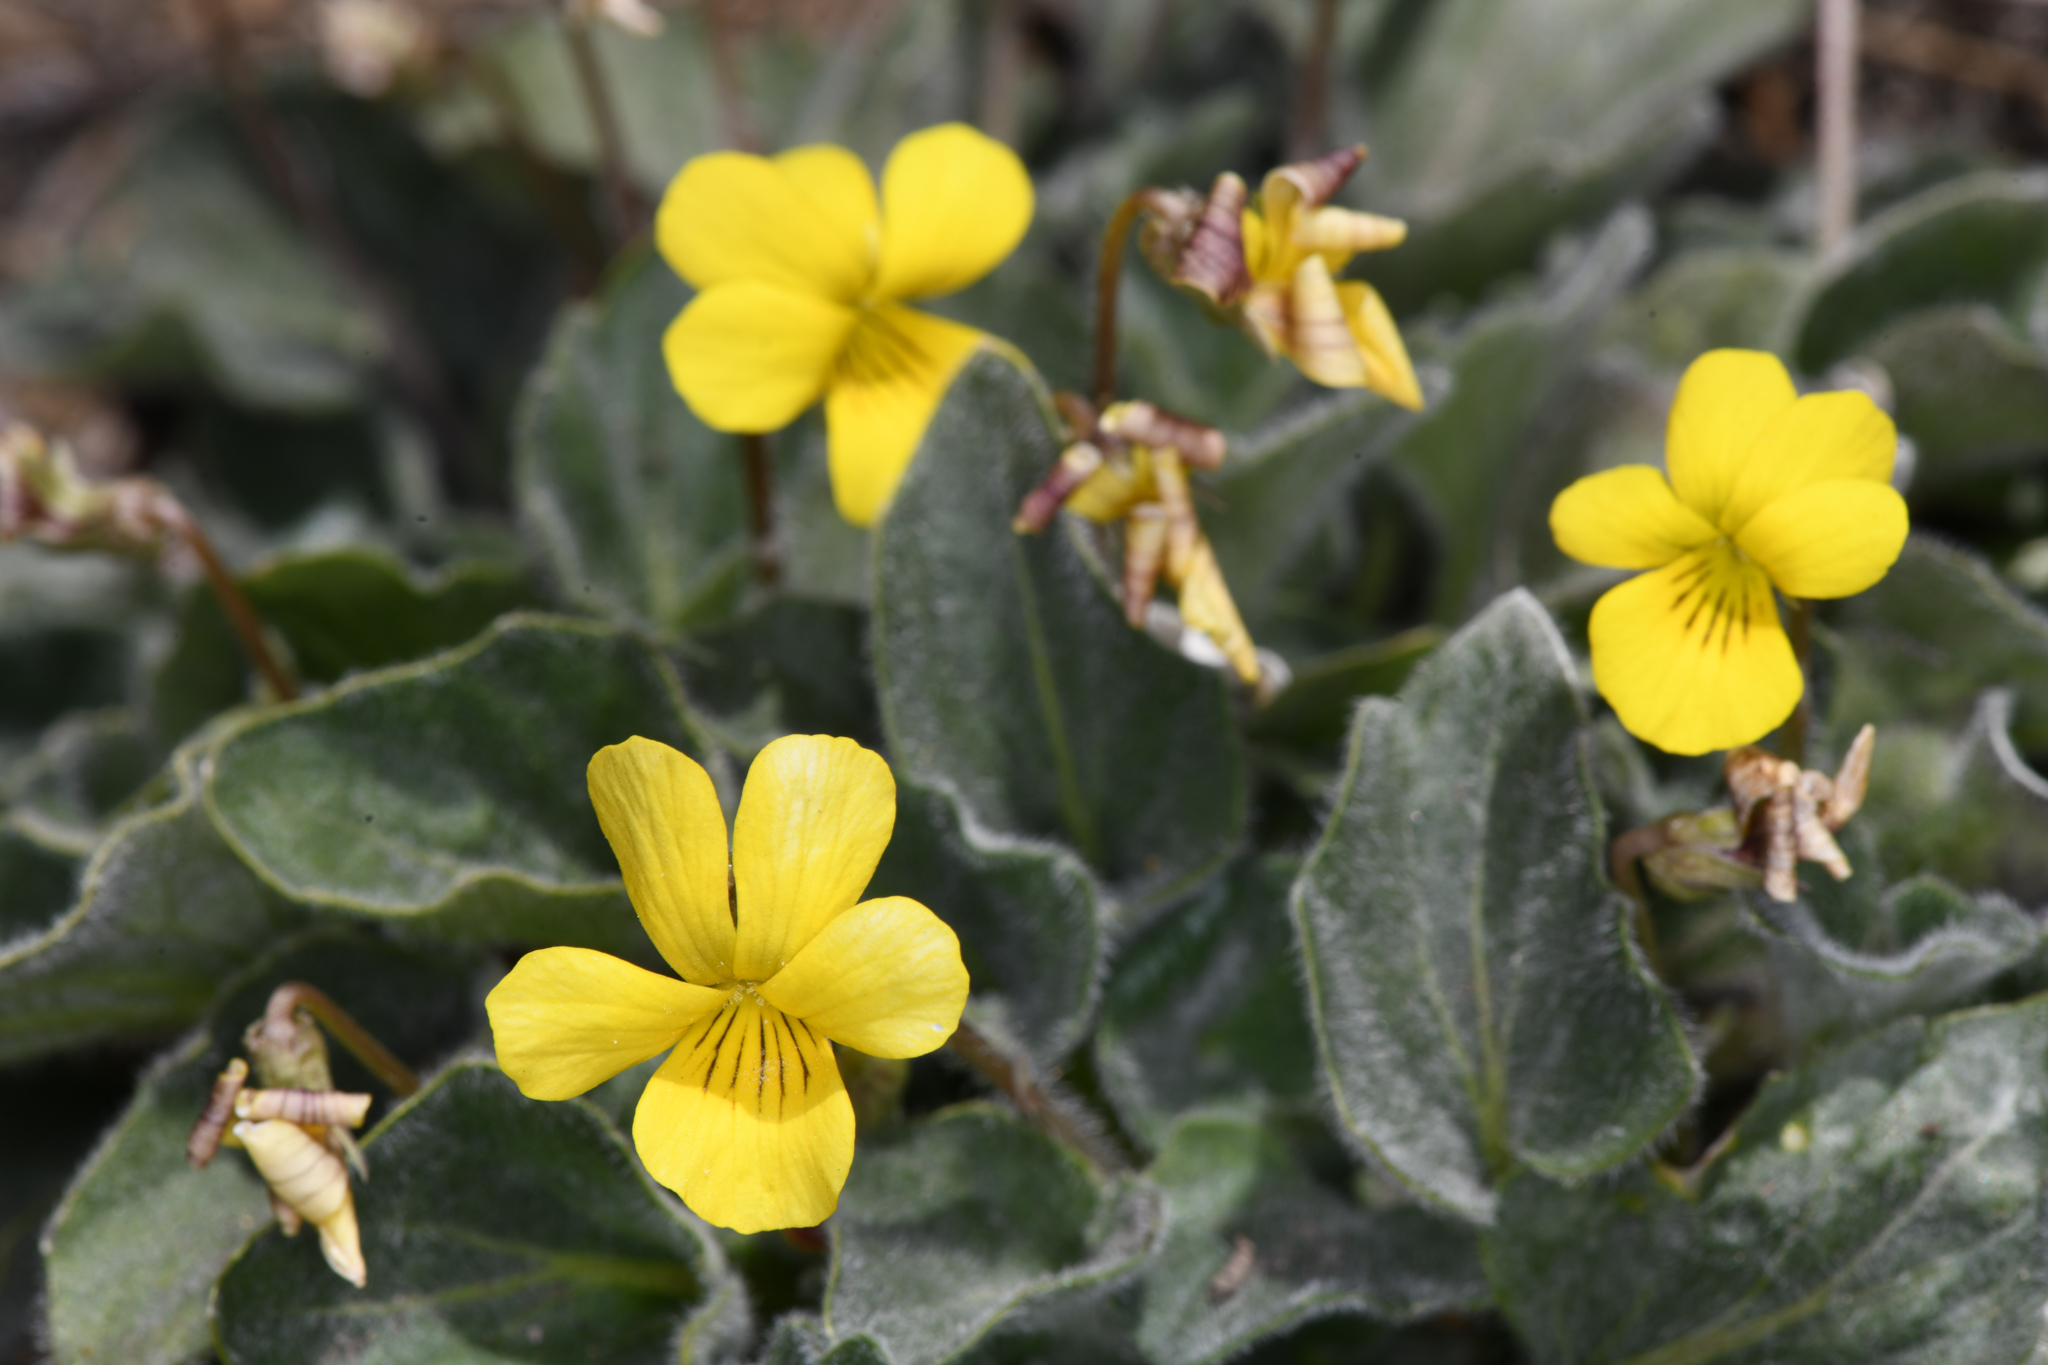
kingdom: Plantae
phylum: Tracheophyta
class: Magnoliopsida
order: Malpighiales
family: Violaceae
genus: Viola
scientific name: Viola purpurea
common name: Pine violet
